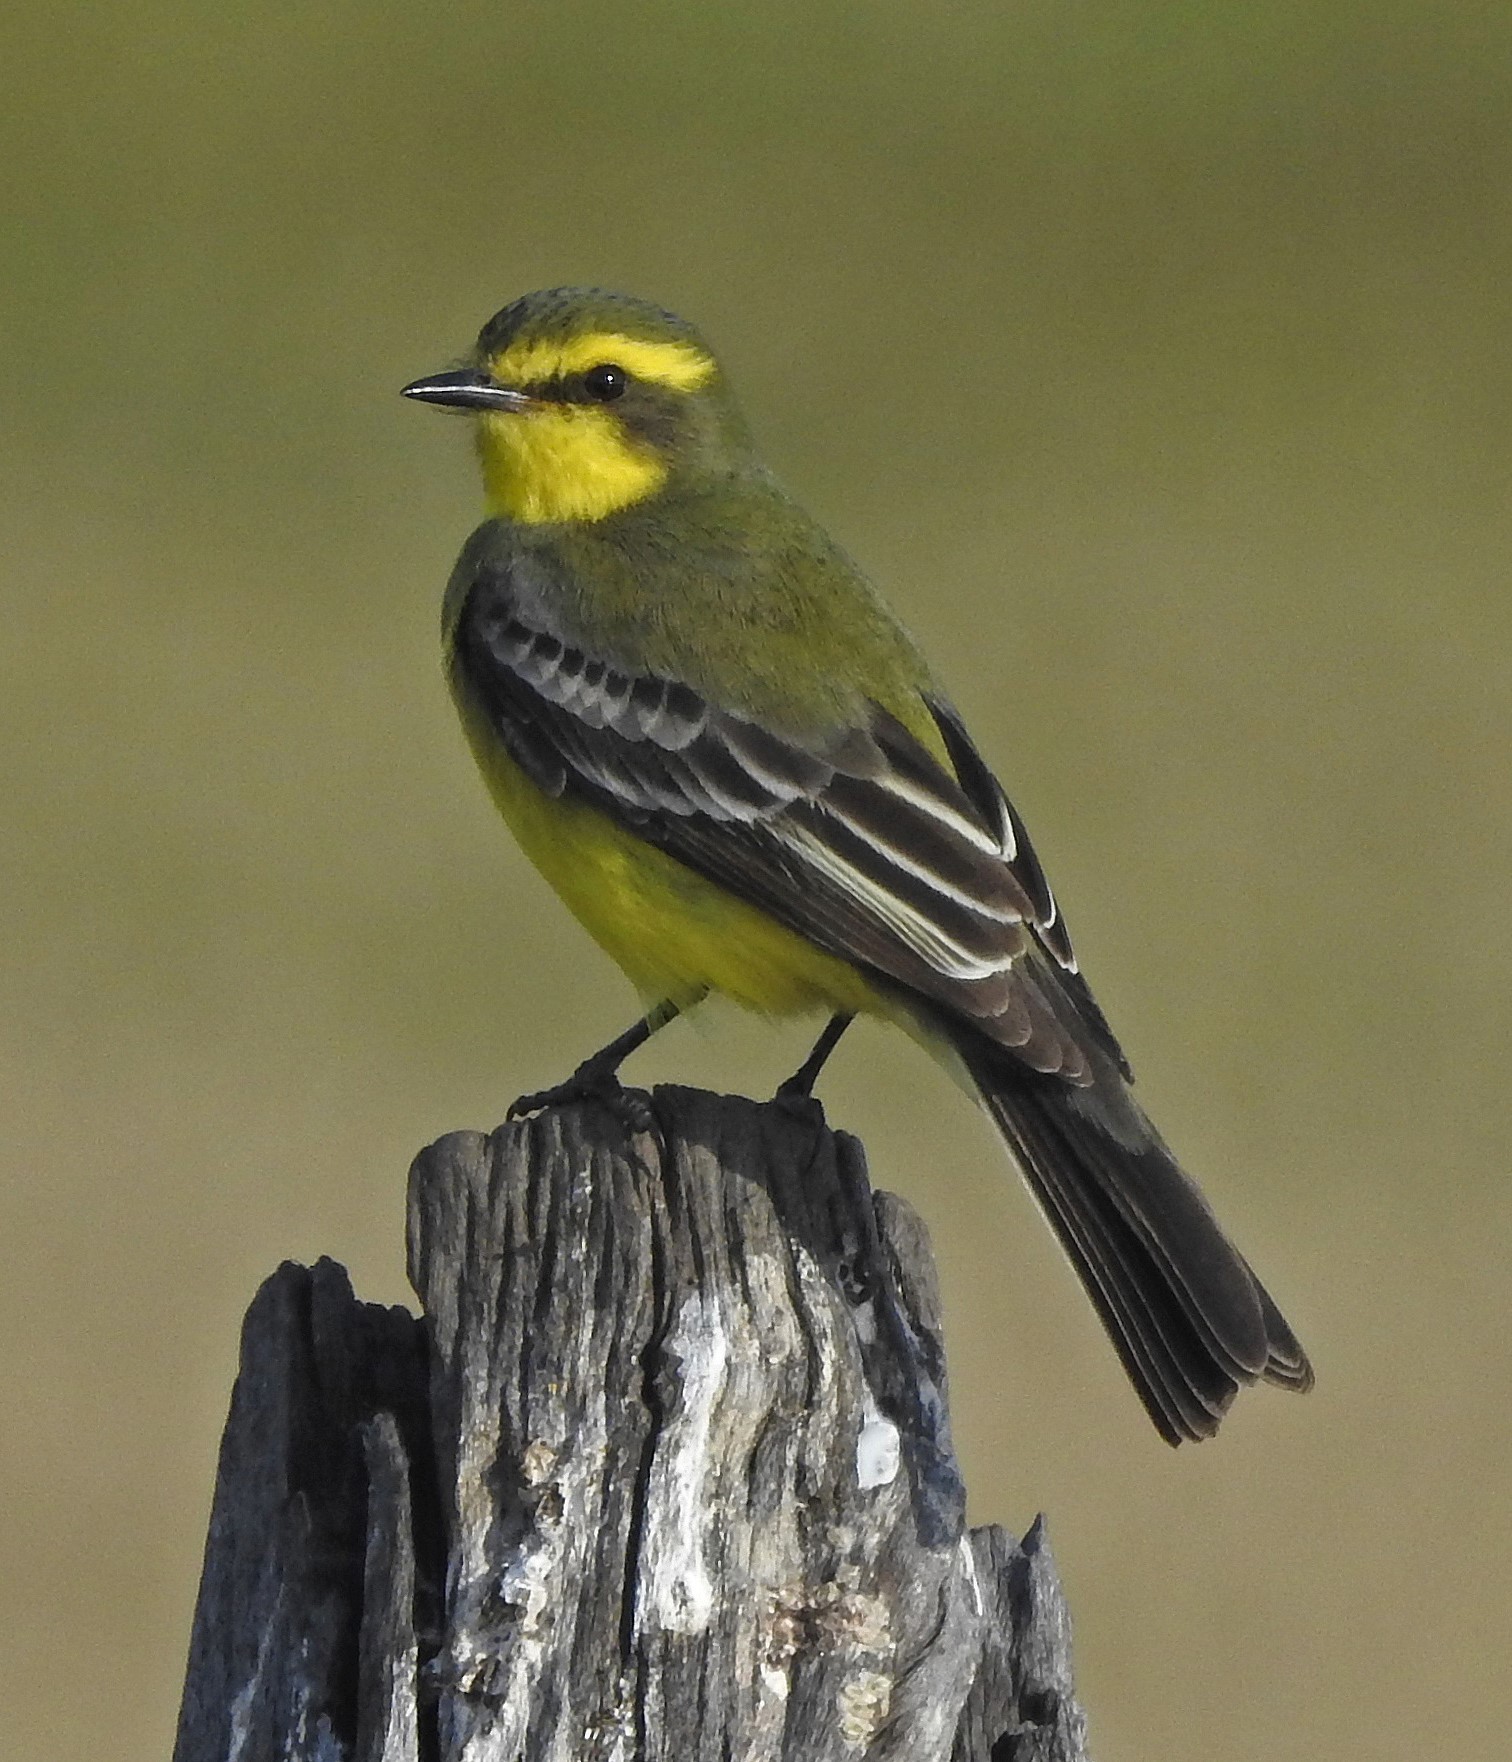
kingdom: Animalia
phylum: Chordata
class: Aves
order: Passeriformes
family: Tyrannidae
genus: Satrapa
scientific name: Satrapa icterophrys
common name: Yellow-browed tyrant
